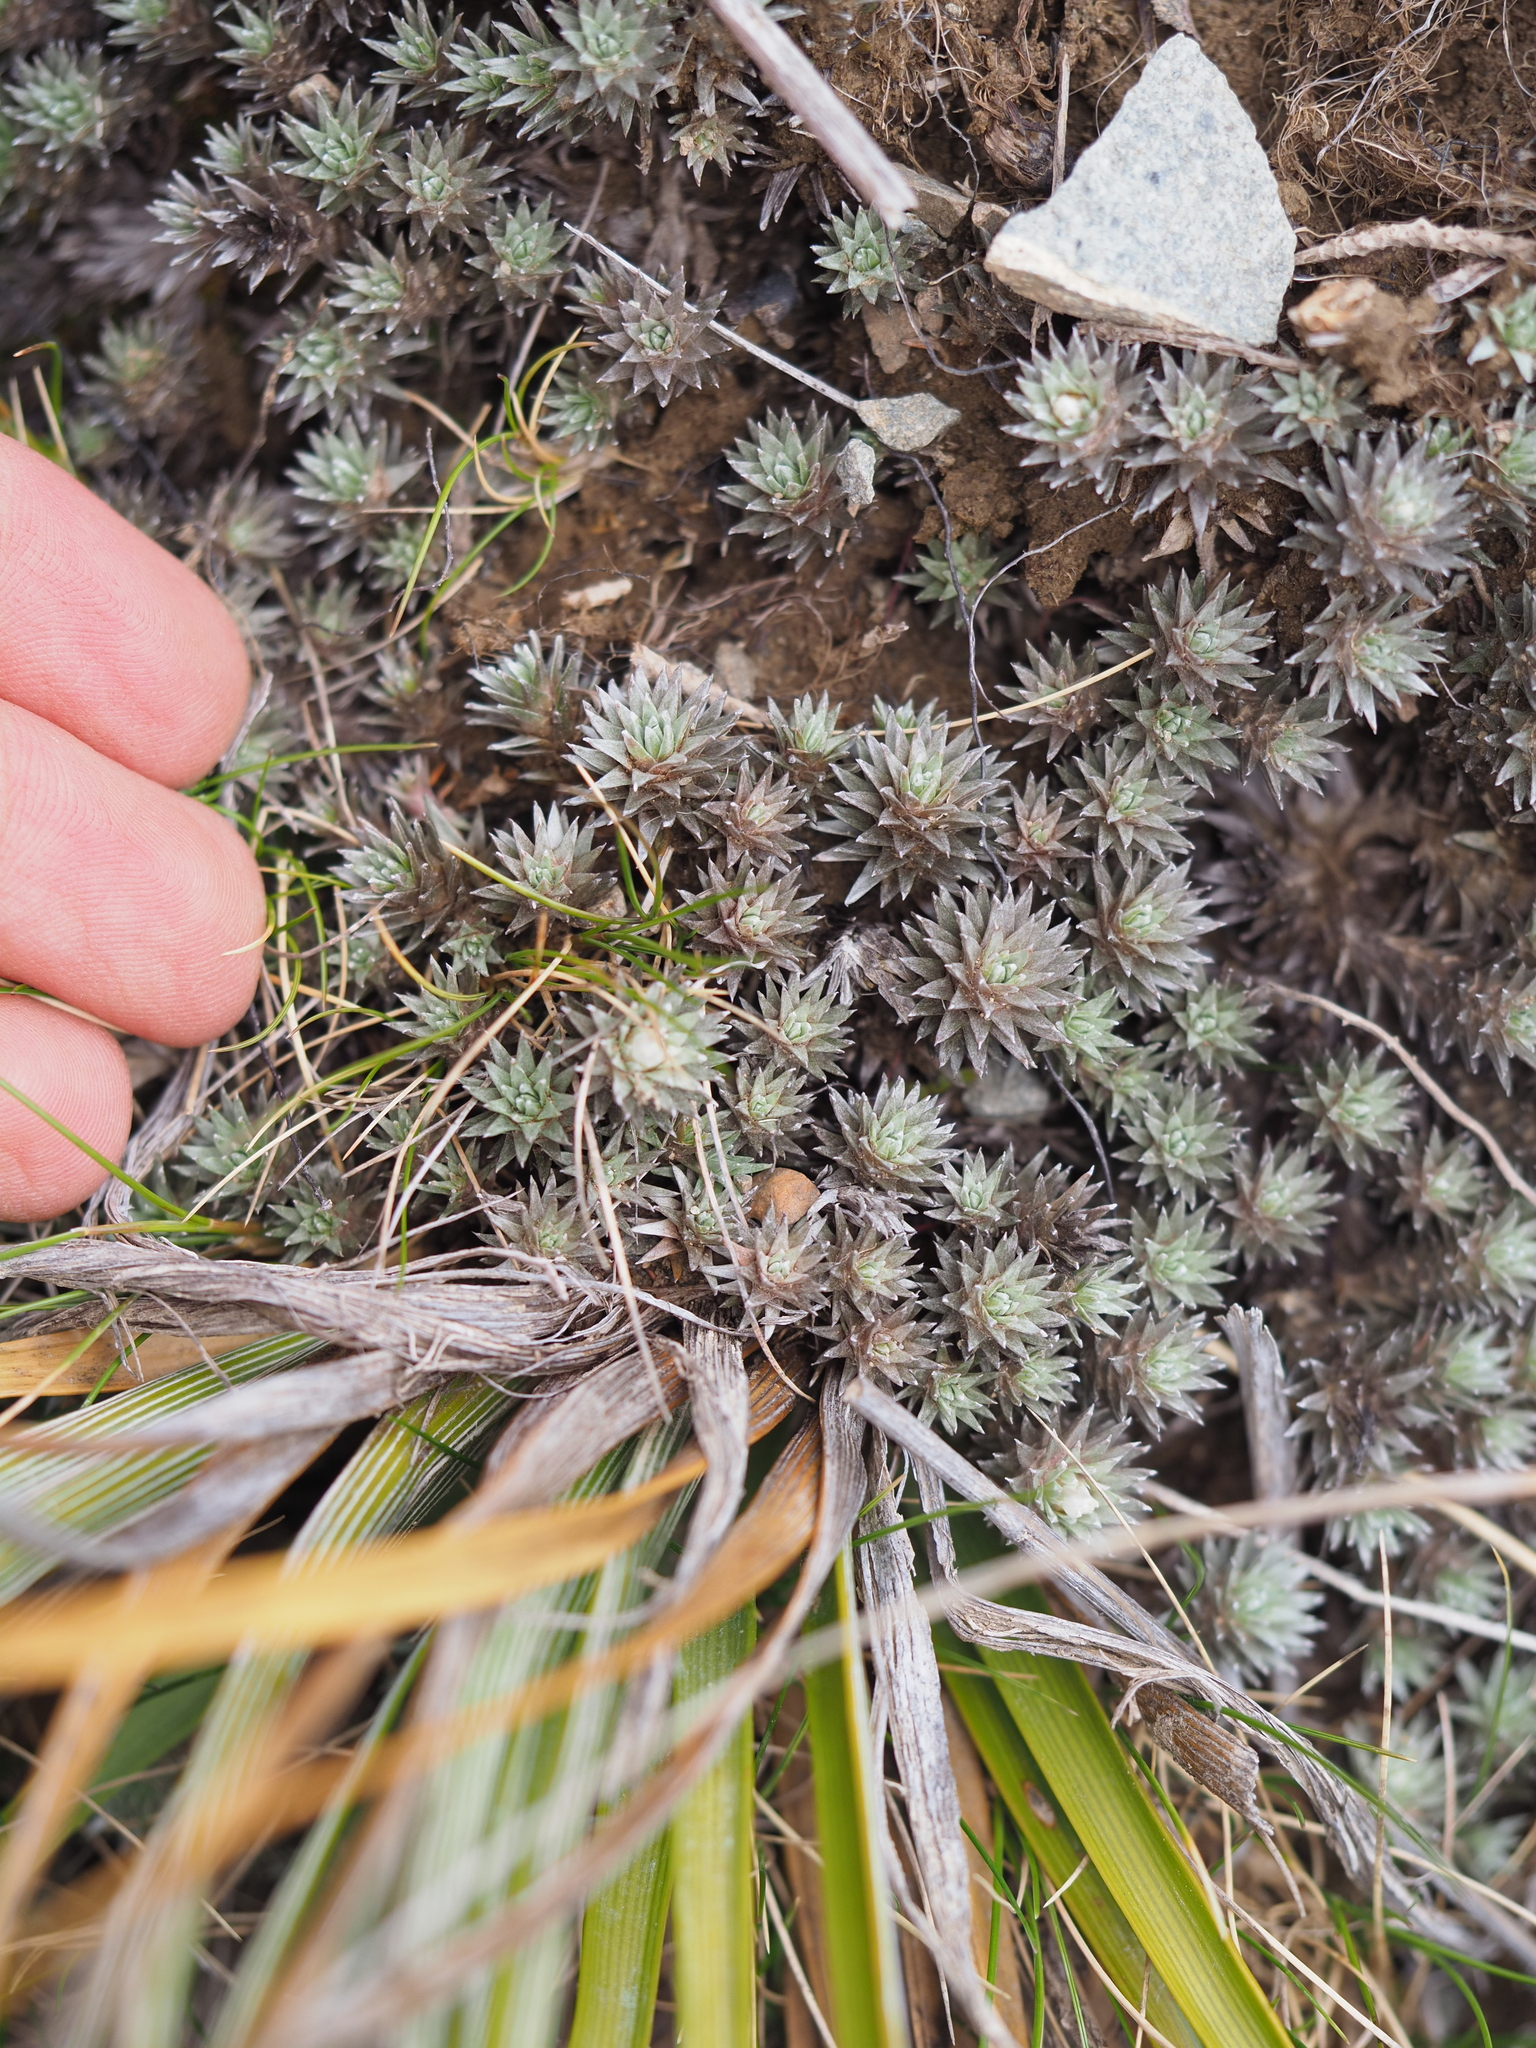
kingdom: Plantae
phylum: Tracheophyta
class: Magnoliopsida
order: Asterales
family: Asteraceae
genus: Raoulia
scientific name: Raoulia grandiflora
